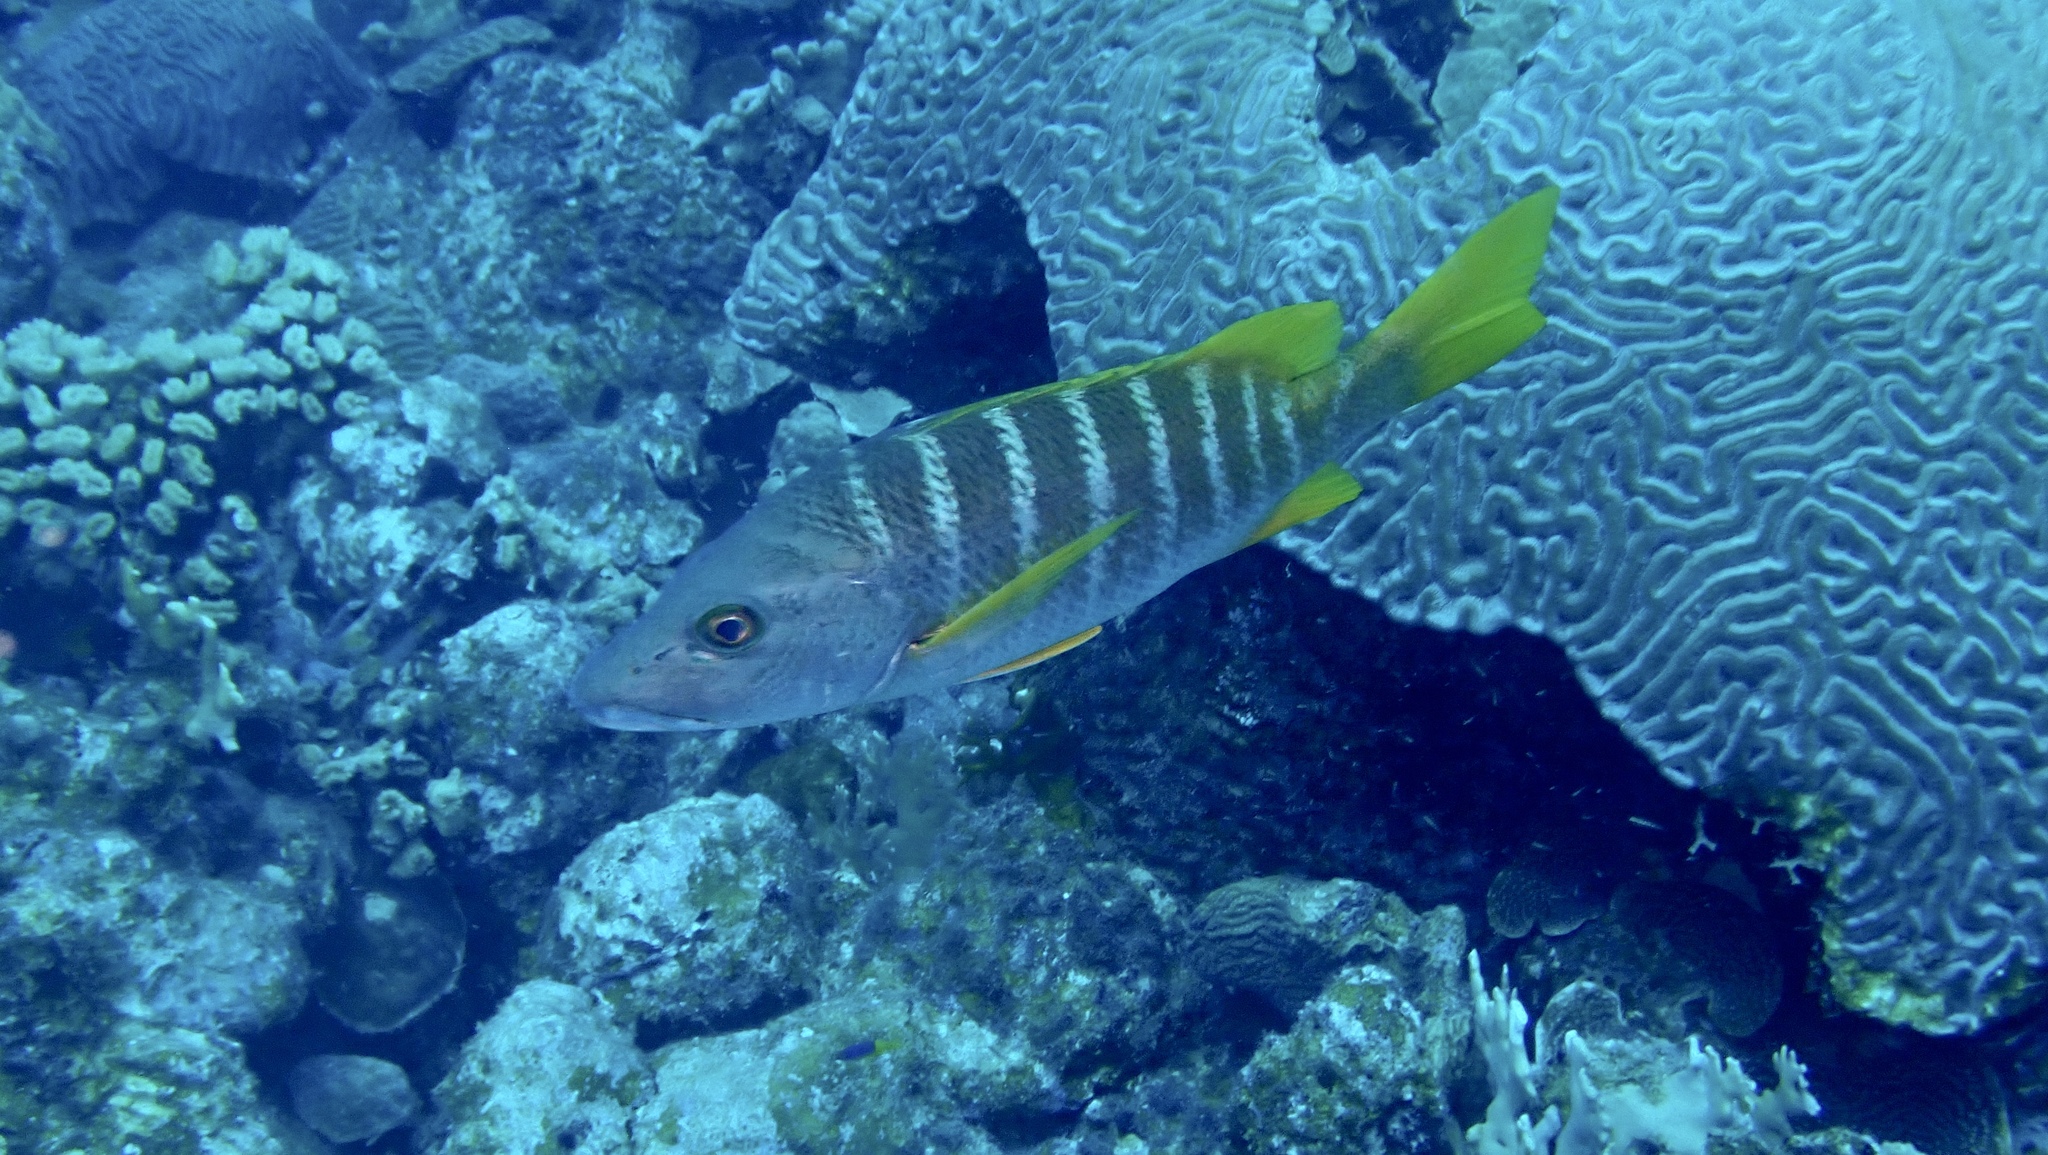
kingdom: Animalia
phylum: Chordata
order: Perciformes
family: Lutjanidae
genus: Lutjanus
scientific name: Lutjanus apodus
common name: Schoolmaster
